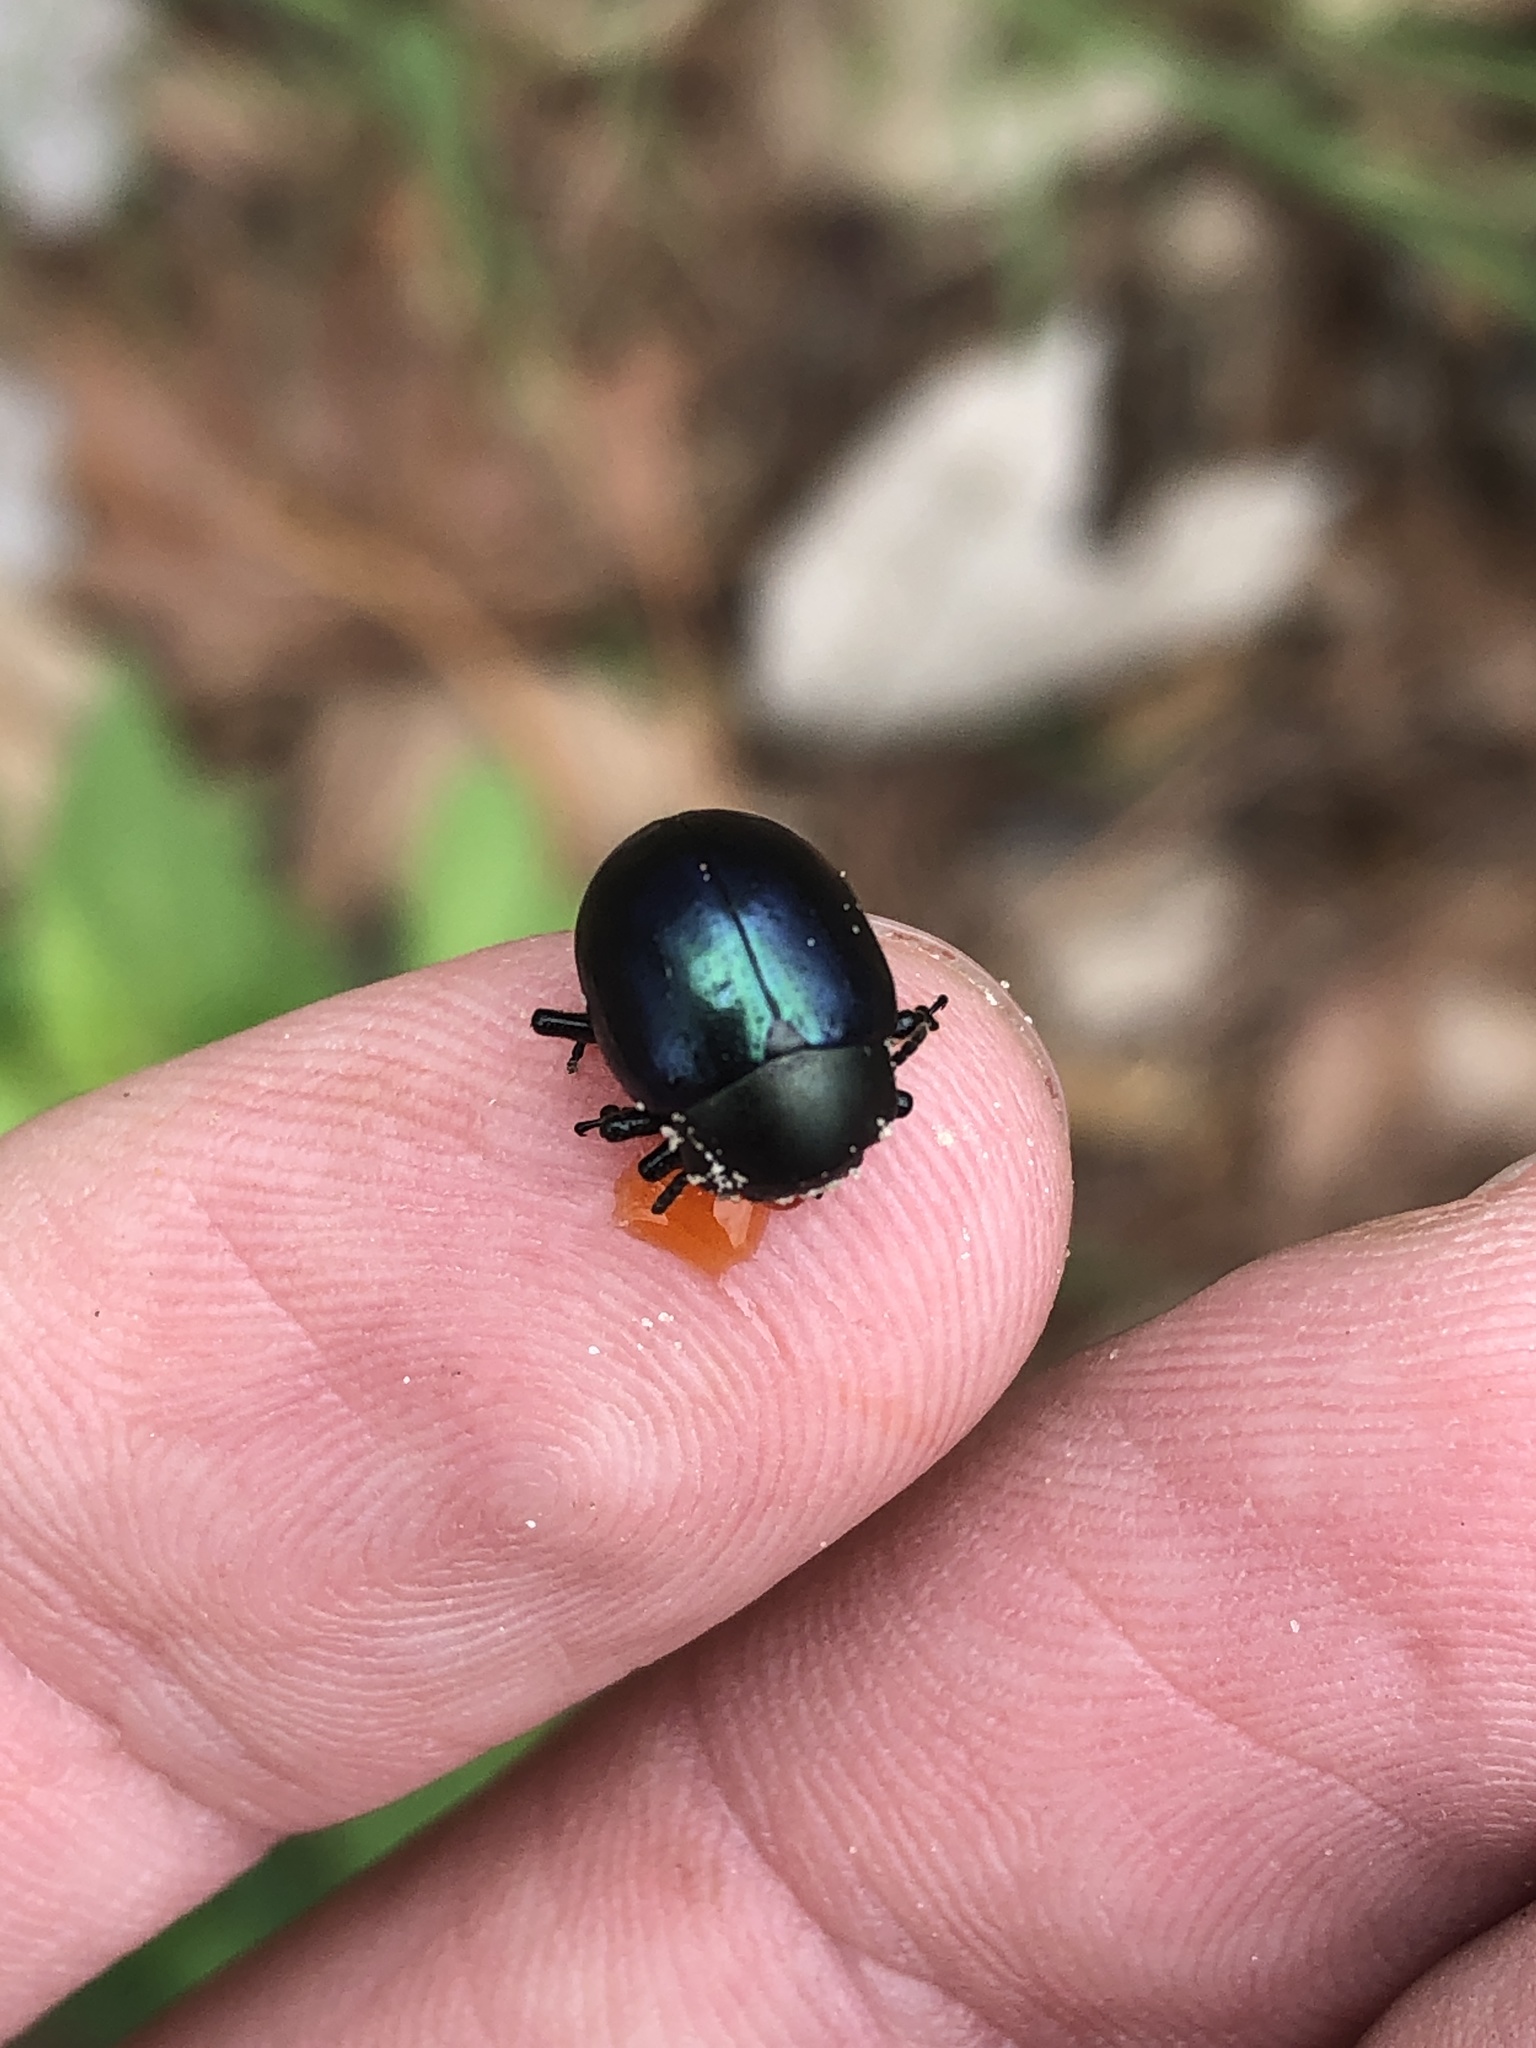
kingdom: Animalia
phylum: Arthropoda
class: Insecta
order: Coleoptera
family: Chrysomelidae
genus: Leptinotarsa
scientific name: Leptinotarsa haldemani
